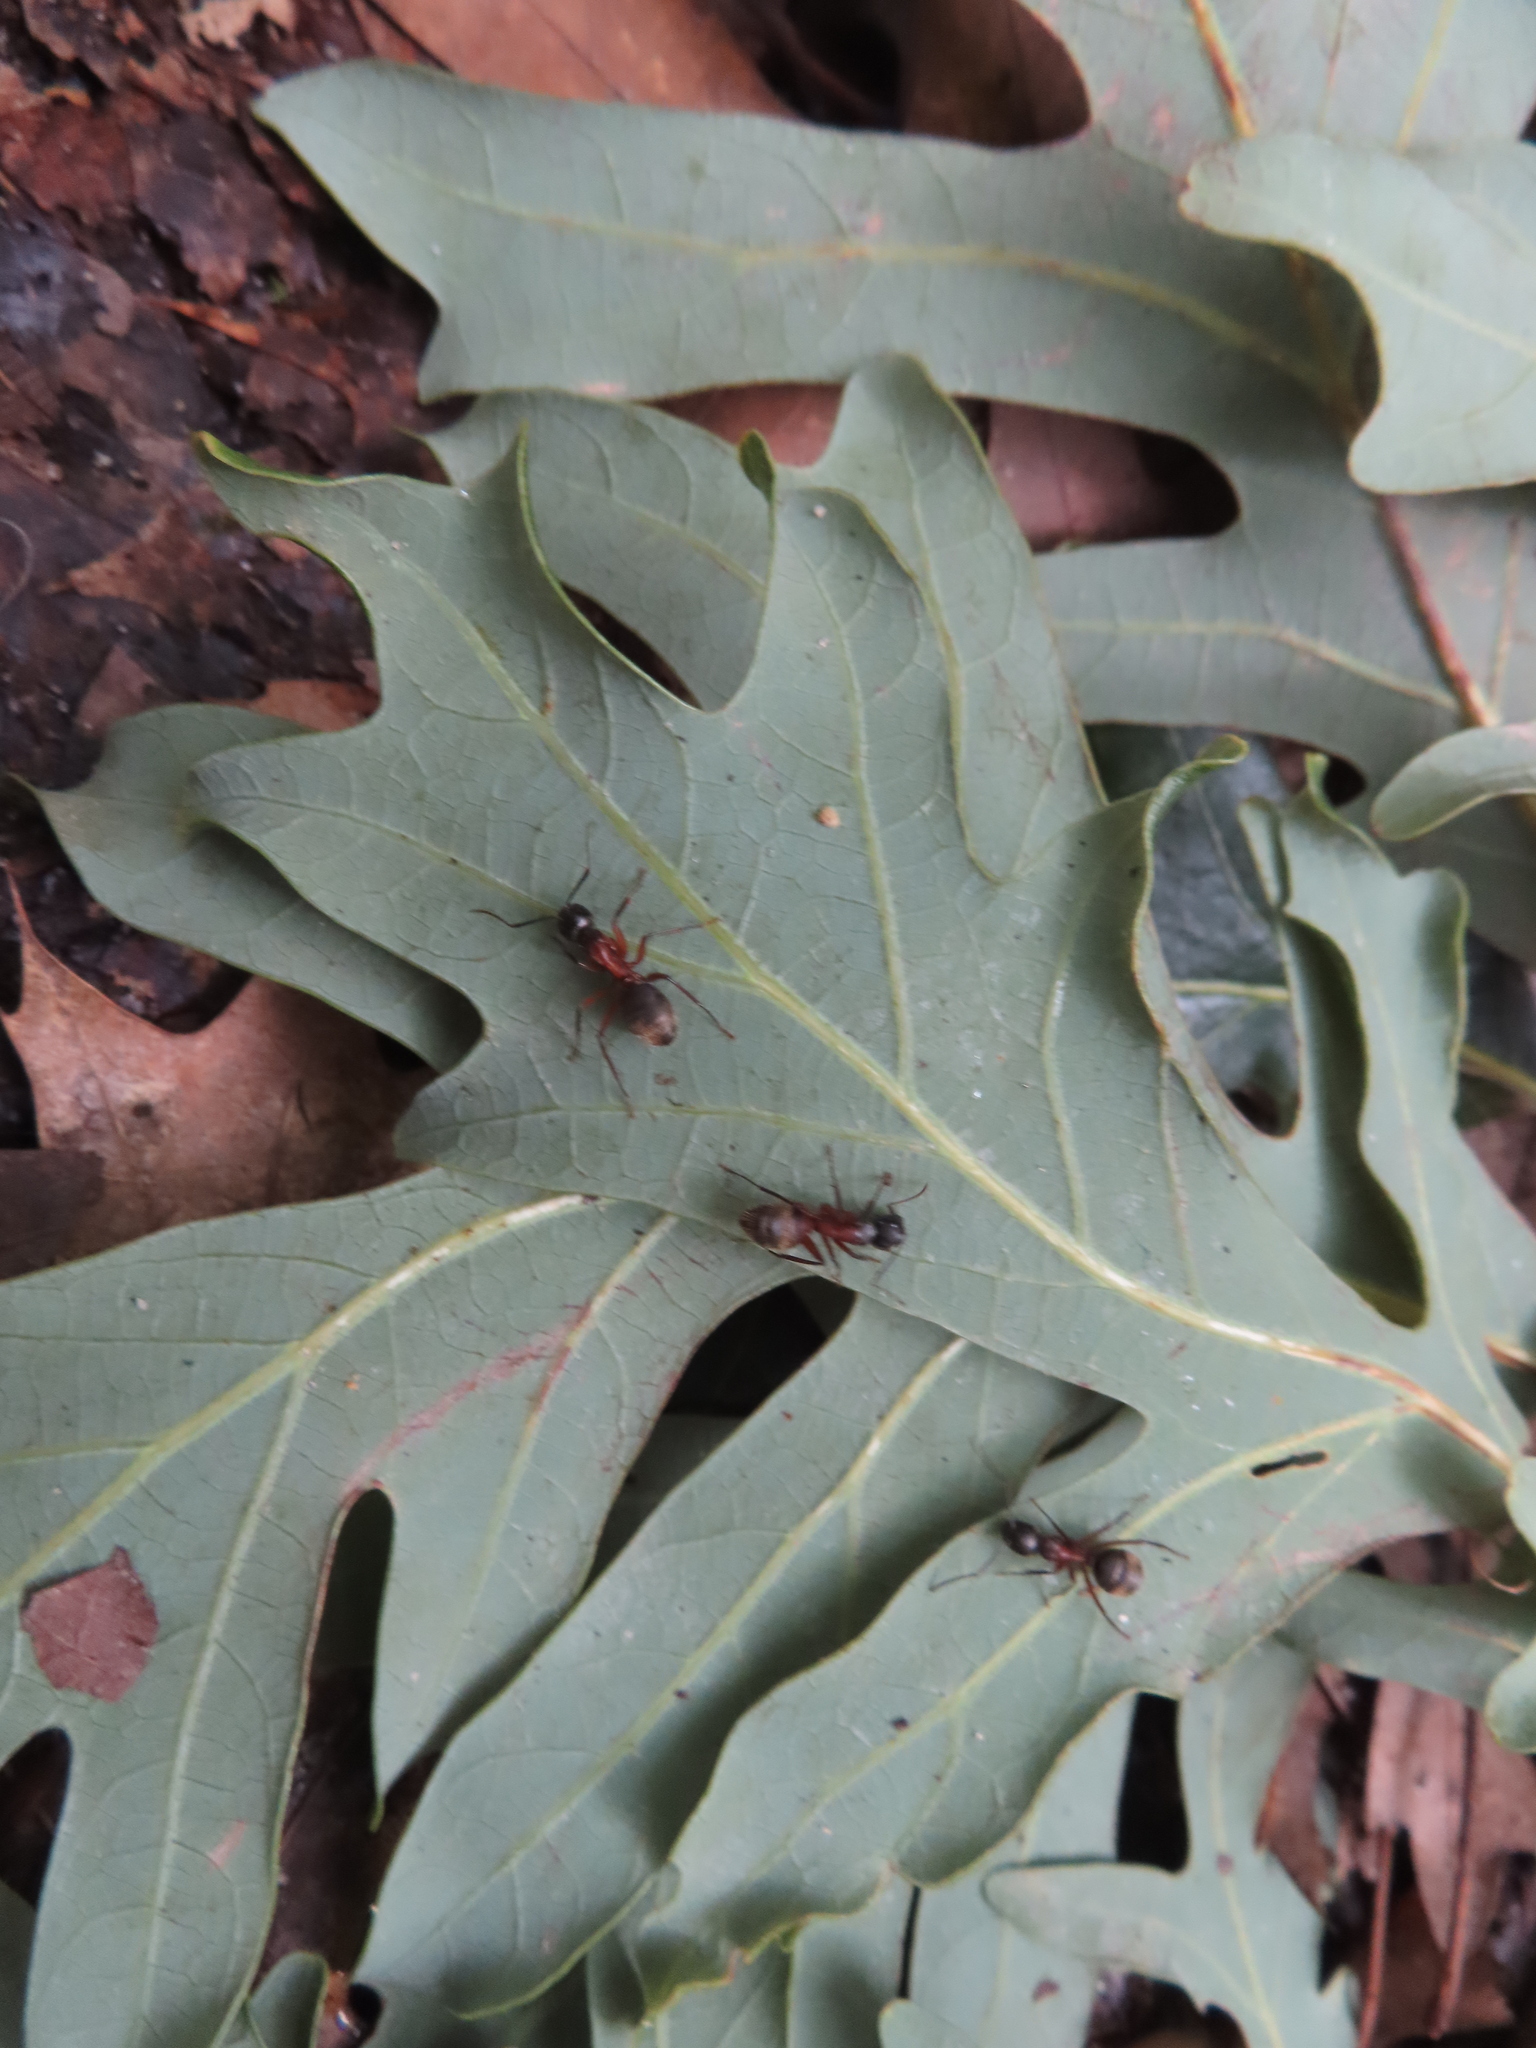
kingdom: Animalia
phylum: Arthropoda
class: Insecta
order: Hymenoptera
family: Formicidae
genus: Camponotus
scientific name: Camponotus chromaiodes
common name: Red carpenter ant
